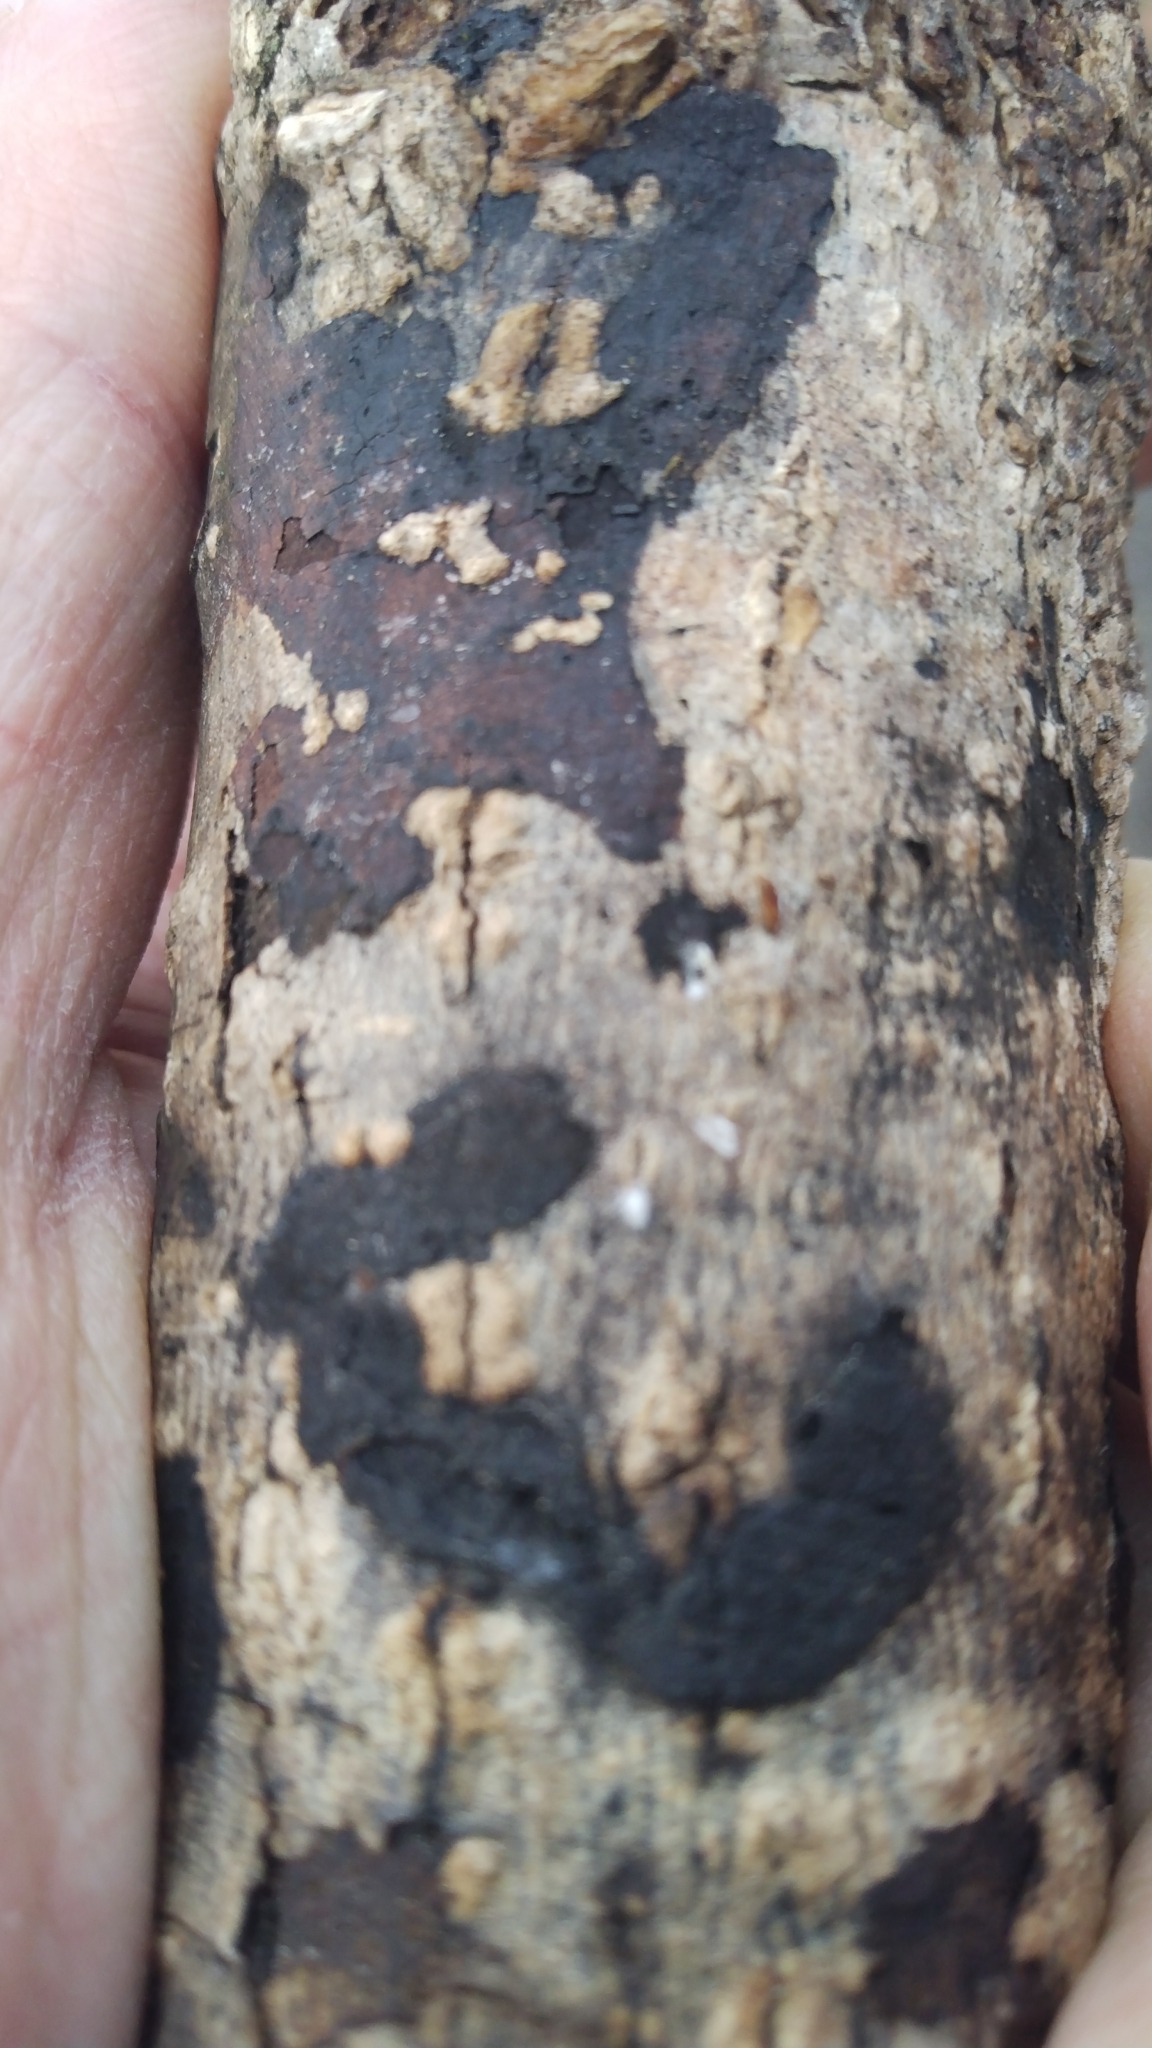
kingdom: Fungi
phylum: Ascomycota
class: Sordariomycetes
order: Xylariales
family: Diatrypaceae
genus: Diatrype
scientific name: Diatrype stigma
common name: Common tarcrust
